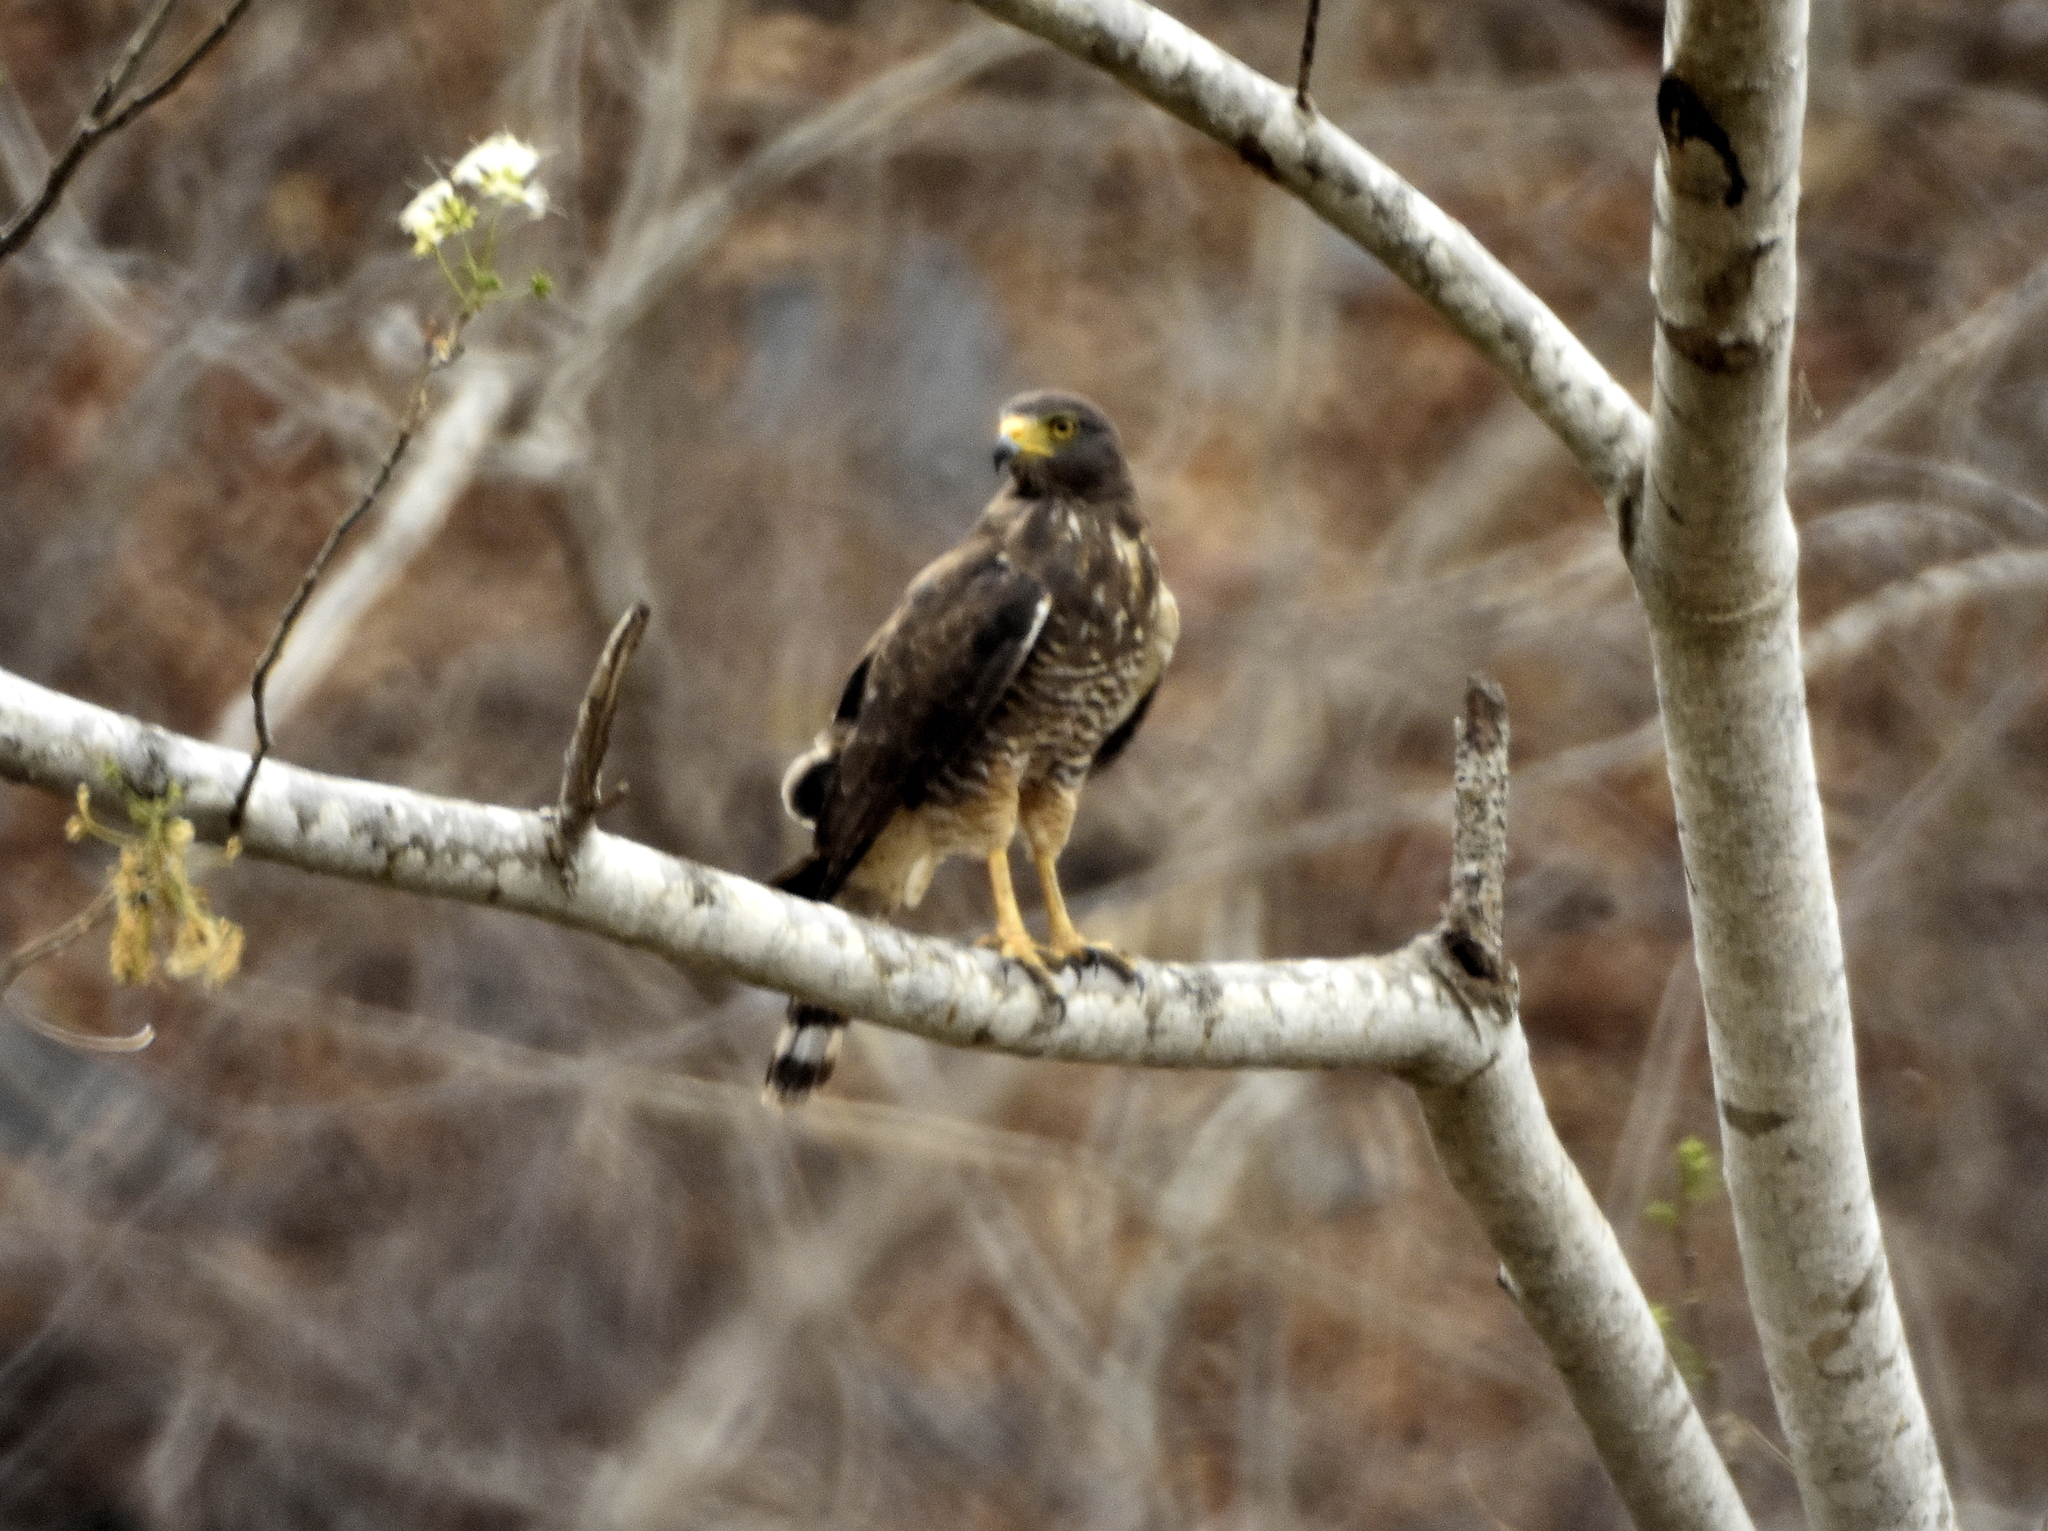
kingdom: Animalia
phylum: Chordata
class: Aves
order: Accipitriformes
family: Accipitridae
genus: Rupornis
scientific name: Rupornis magnirostris
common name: Roadside hawk
